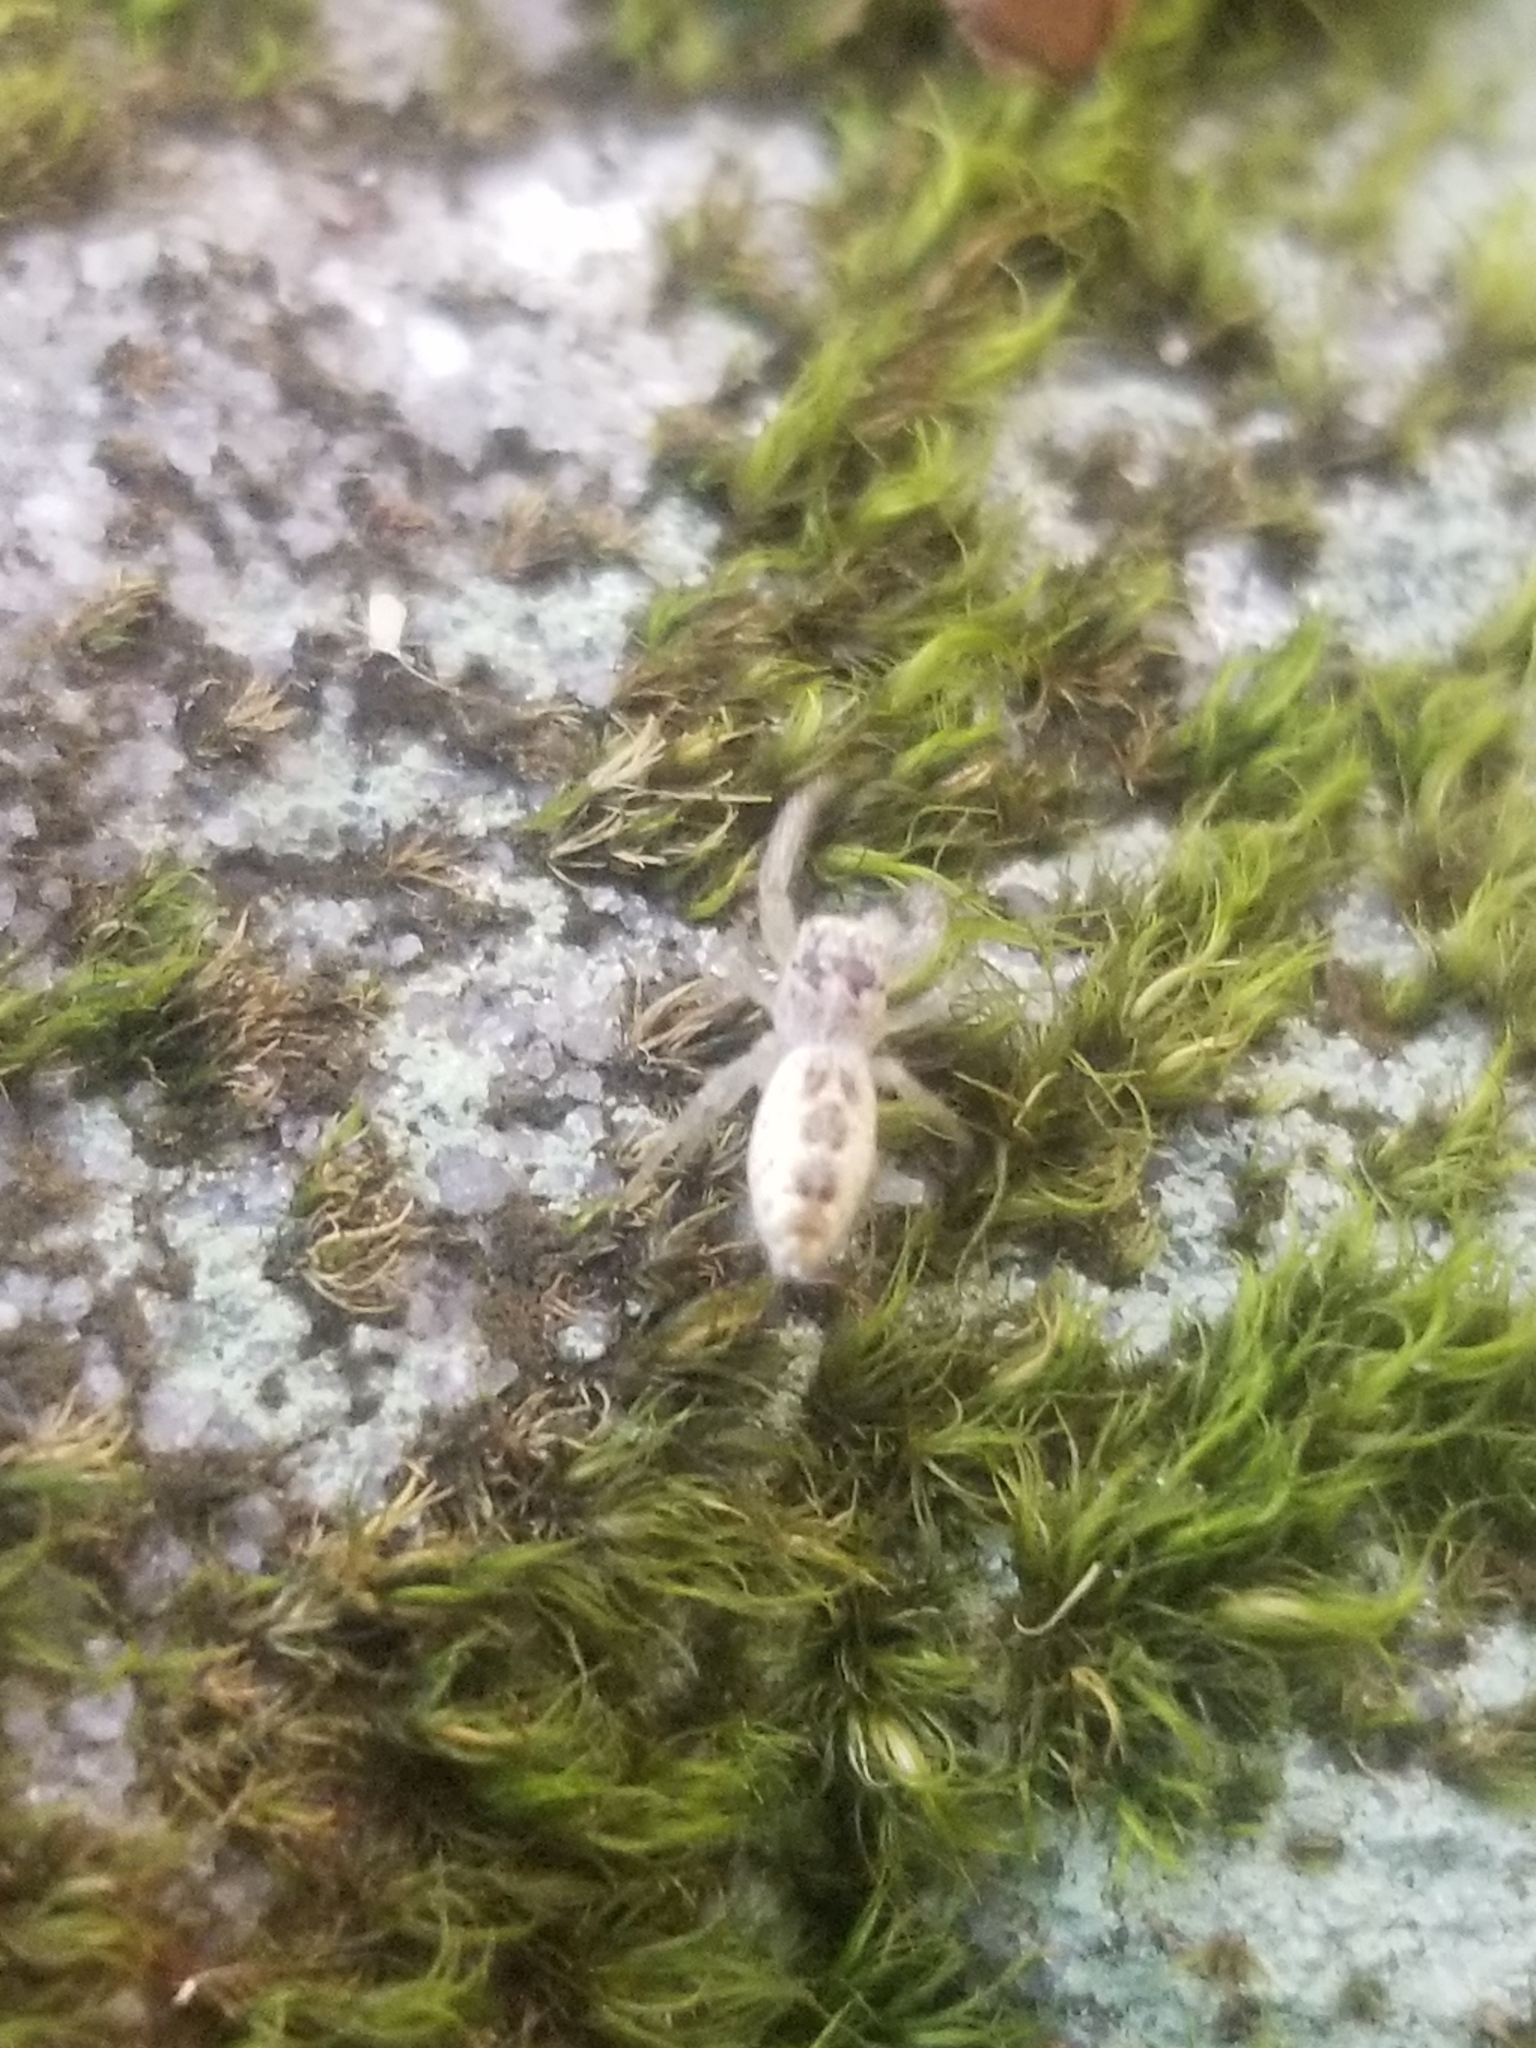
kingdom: Animalia
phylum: Arthropoda
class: Arachnida
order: Araneae
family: Salticidae
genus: Hentzia
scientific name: Hentzia mitrata
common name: White-jawed jumping spider
